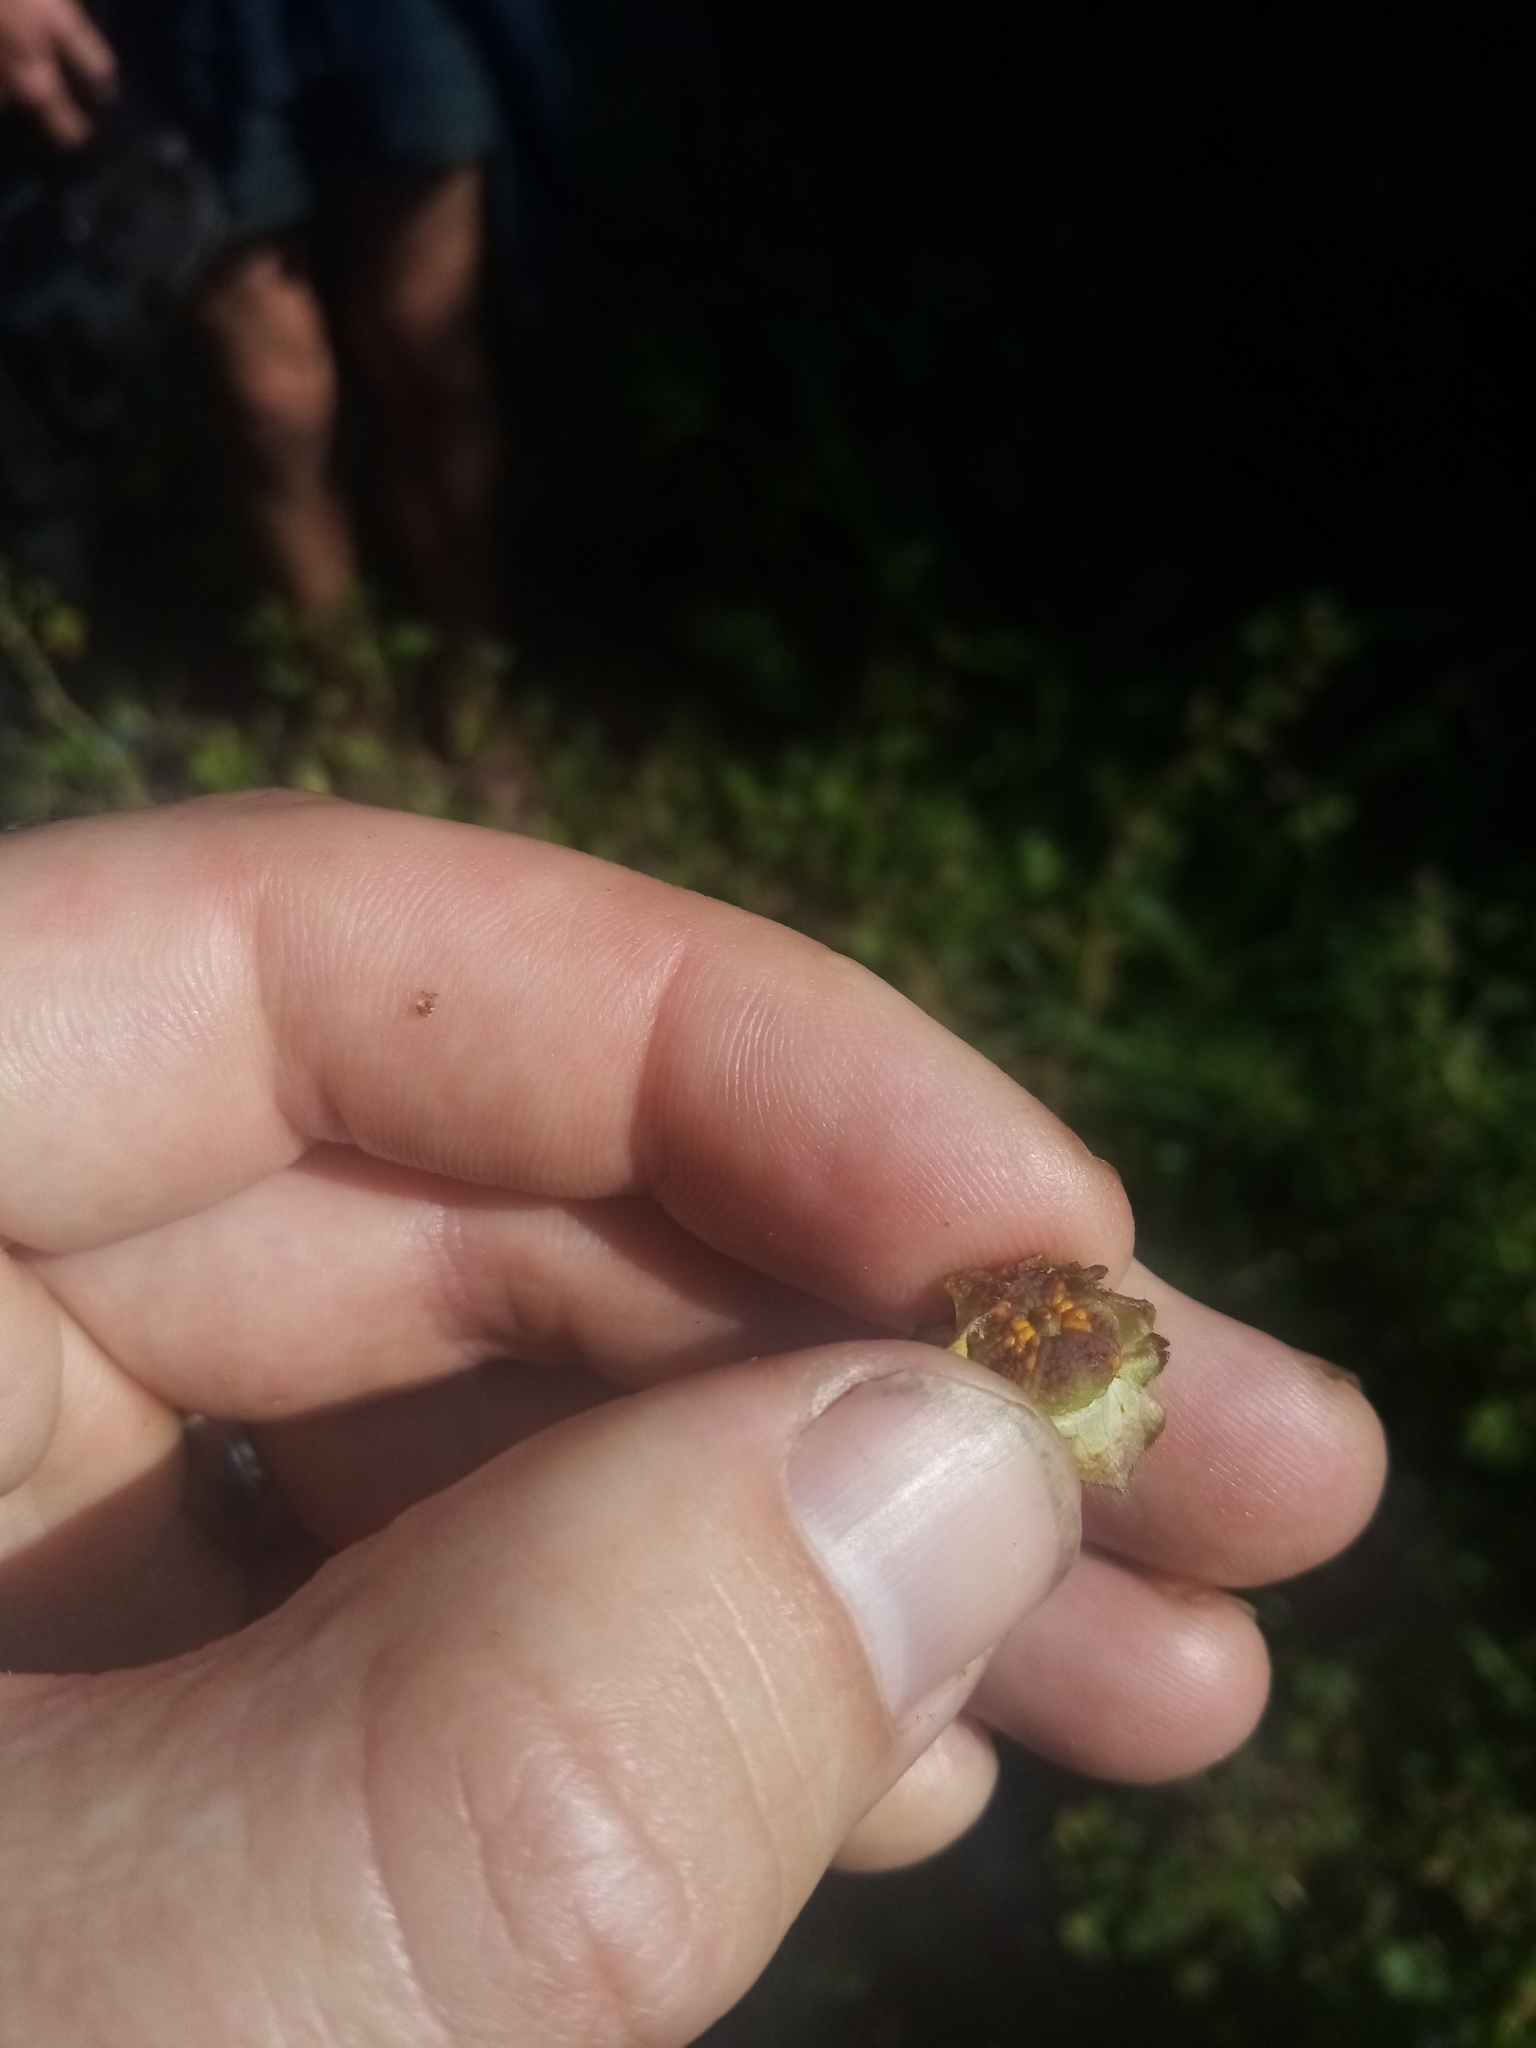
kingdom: Fungi
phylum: Basidiomycota
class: Pucciniomycetes
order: Pucciniales
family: Pucciniaceae
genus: Puccinia
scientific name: Puccinia malvacearum
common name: Hollyhock rust
